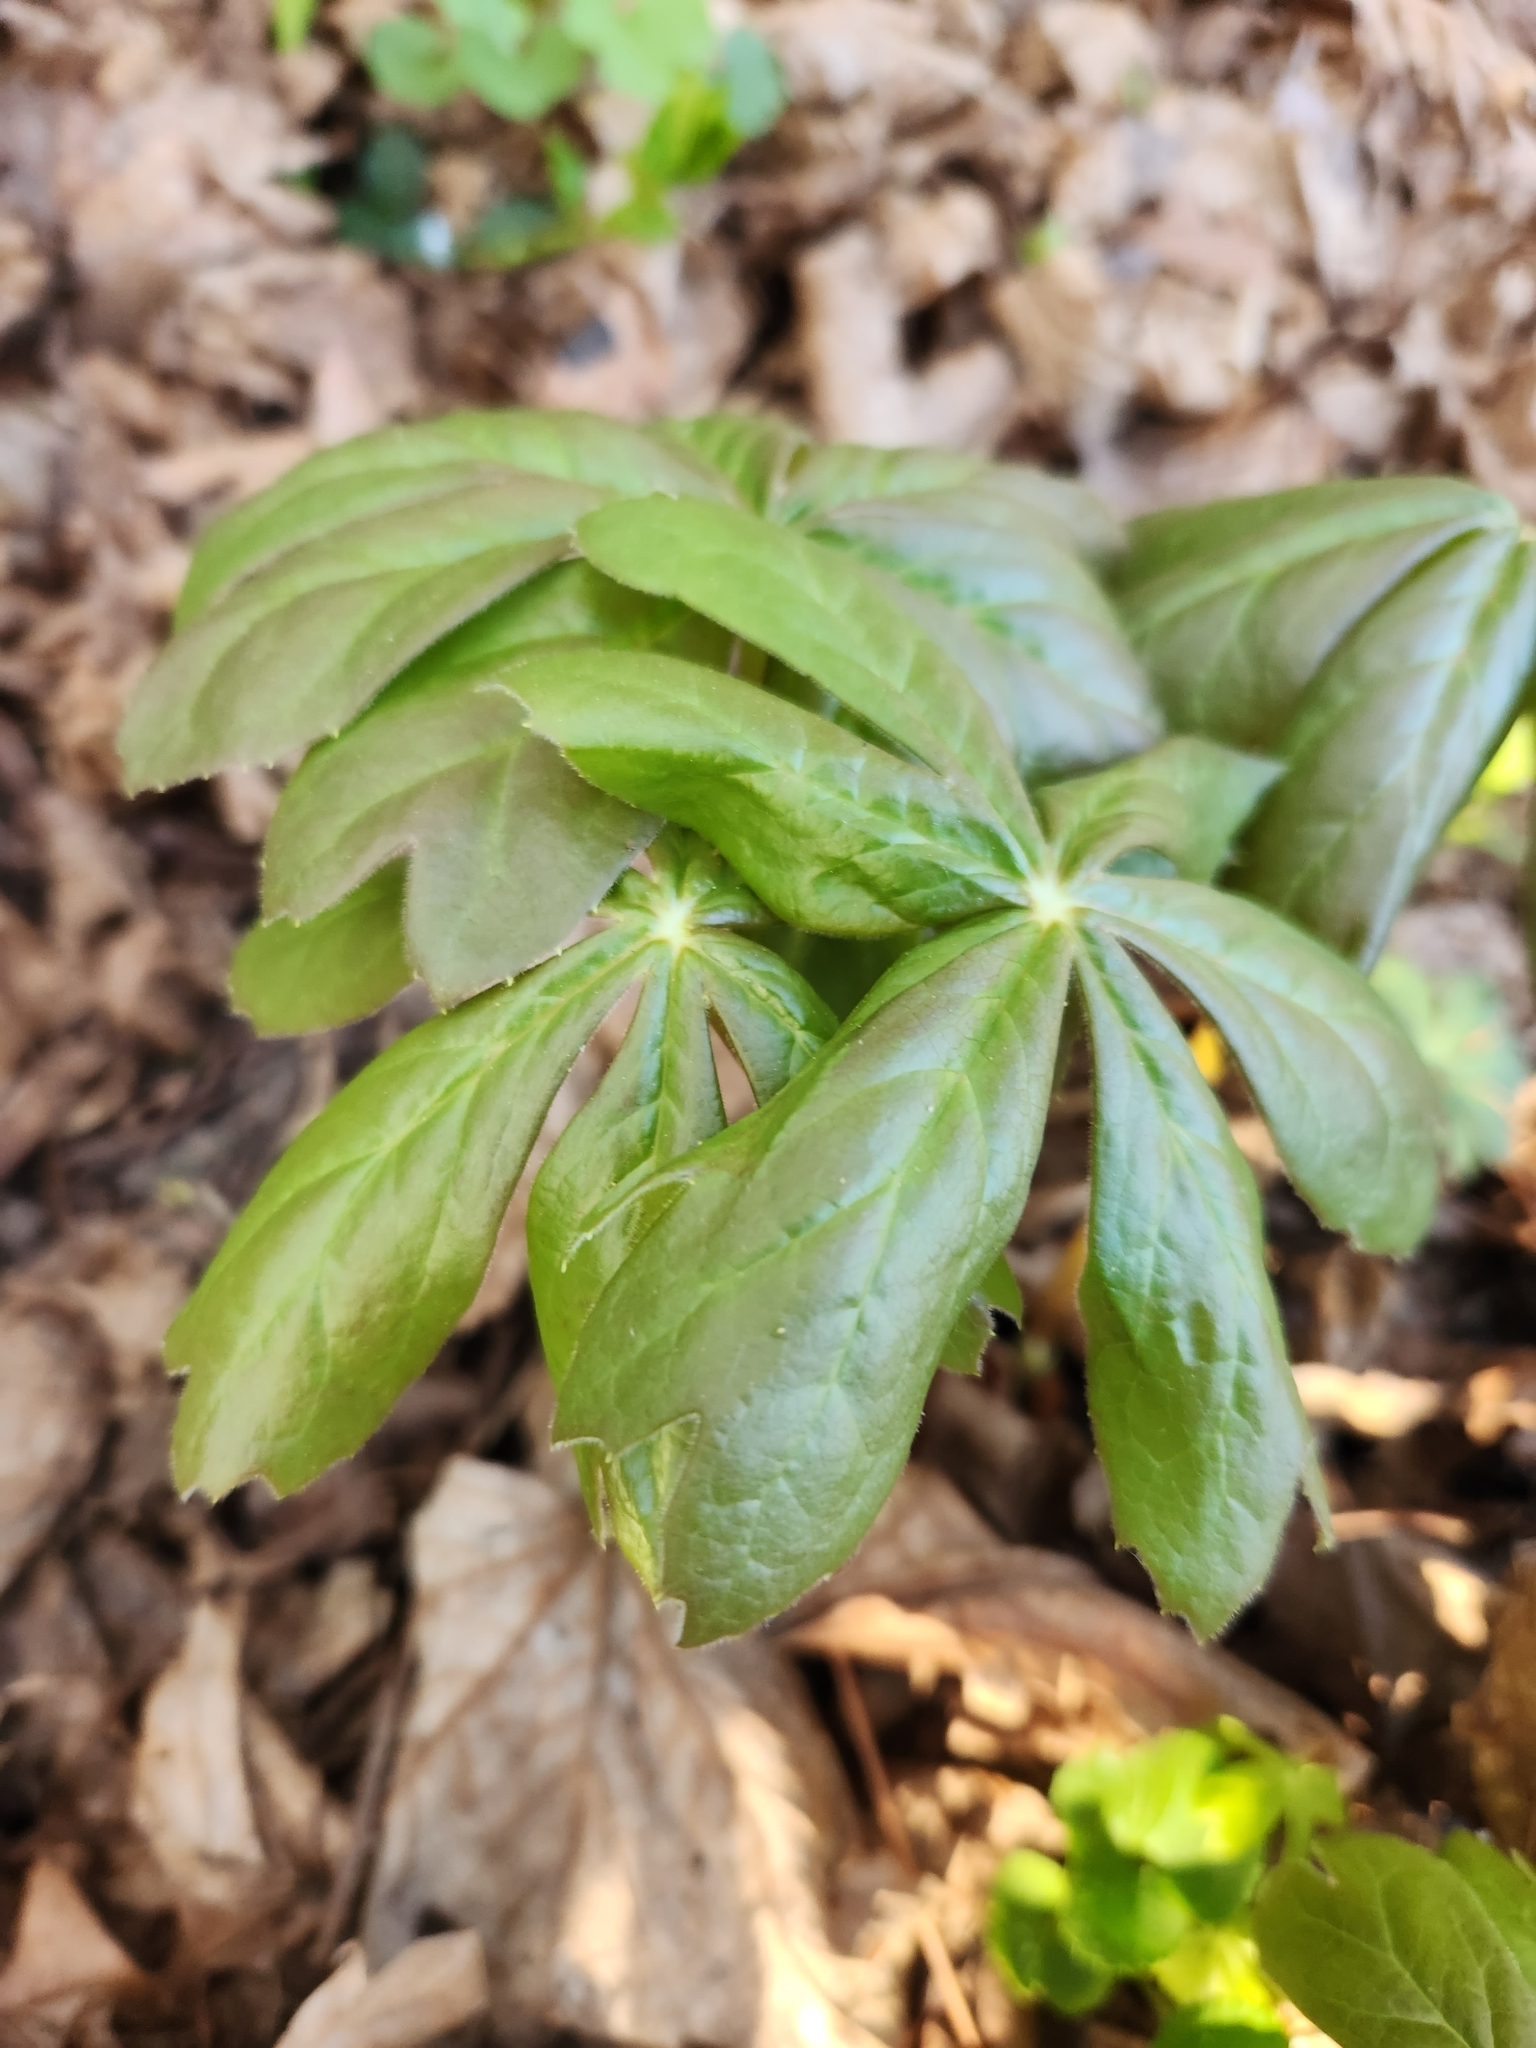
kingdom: Plantae
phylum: Tracheophyta
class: Magnoliopsida
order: Ranunculales
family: Berberidaceae
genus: Podophyllum
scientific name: Podophyllum peltatum
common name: Wild mandrake
